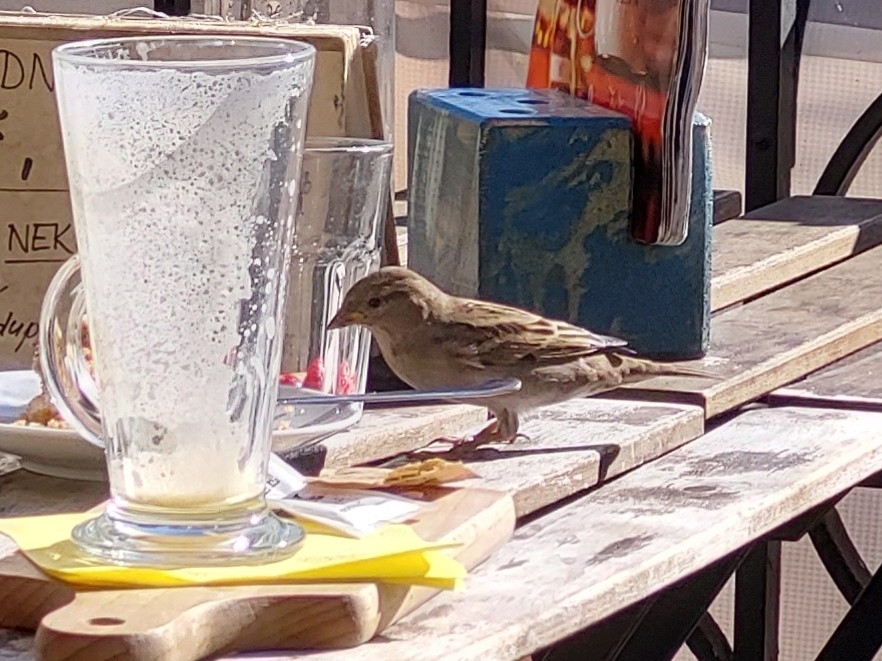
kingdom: Animalia
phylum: Chordata
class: Aves
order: Passeriformes
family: Passeridae
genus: Passer
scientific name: Passer domesticus
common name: House sparrow
